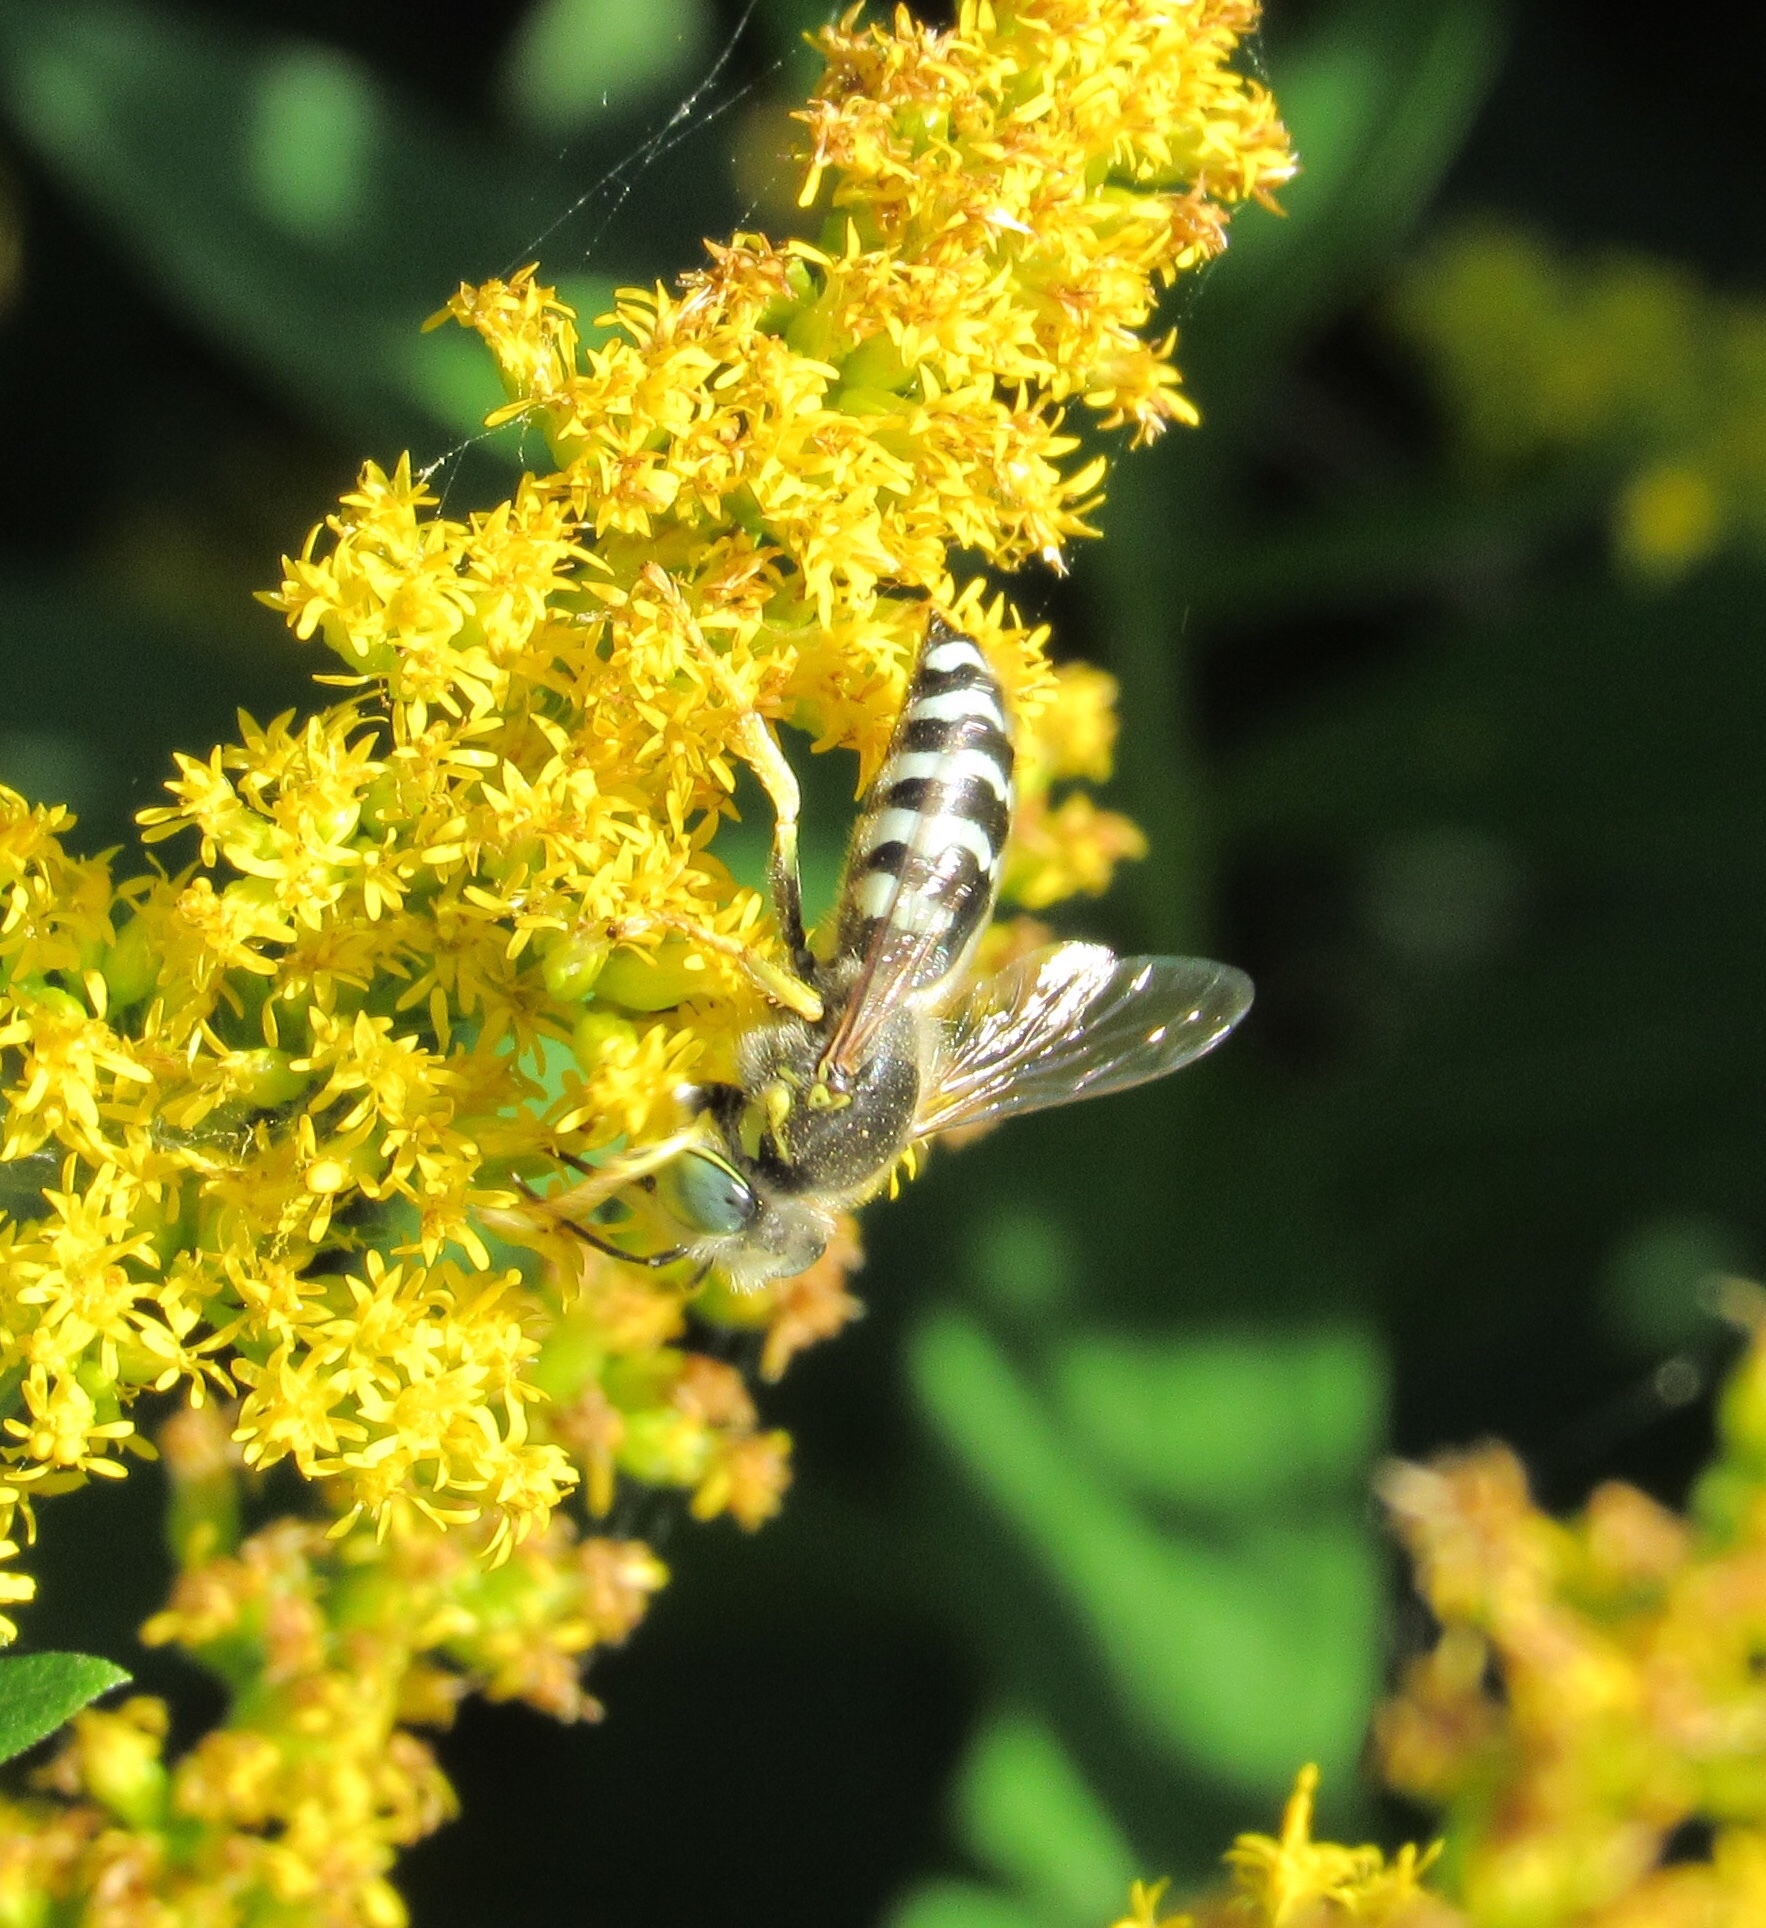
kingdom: Animalia
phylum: Arthropoda
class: Insecta
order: Hymenoptera
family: Crabronidae
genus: Bembix
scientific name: Bembix americana
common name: American sand wasp
